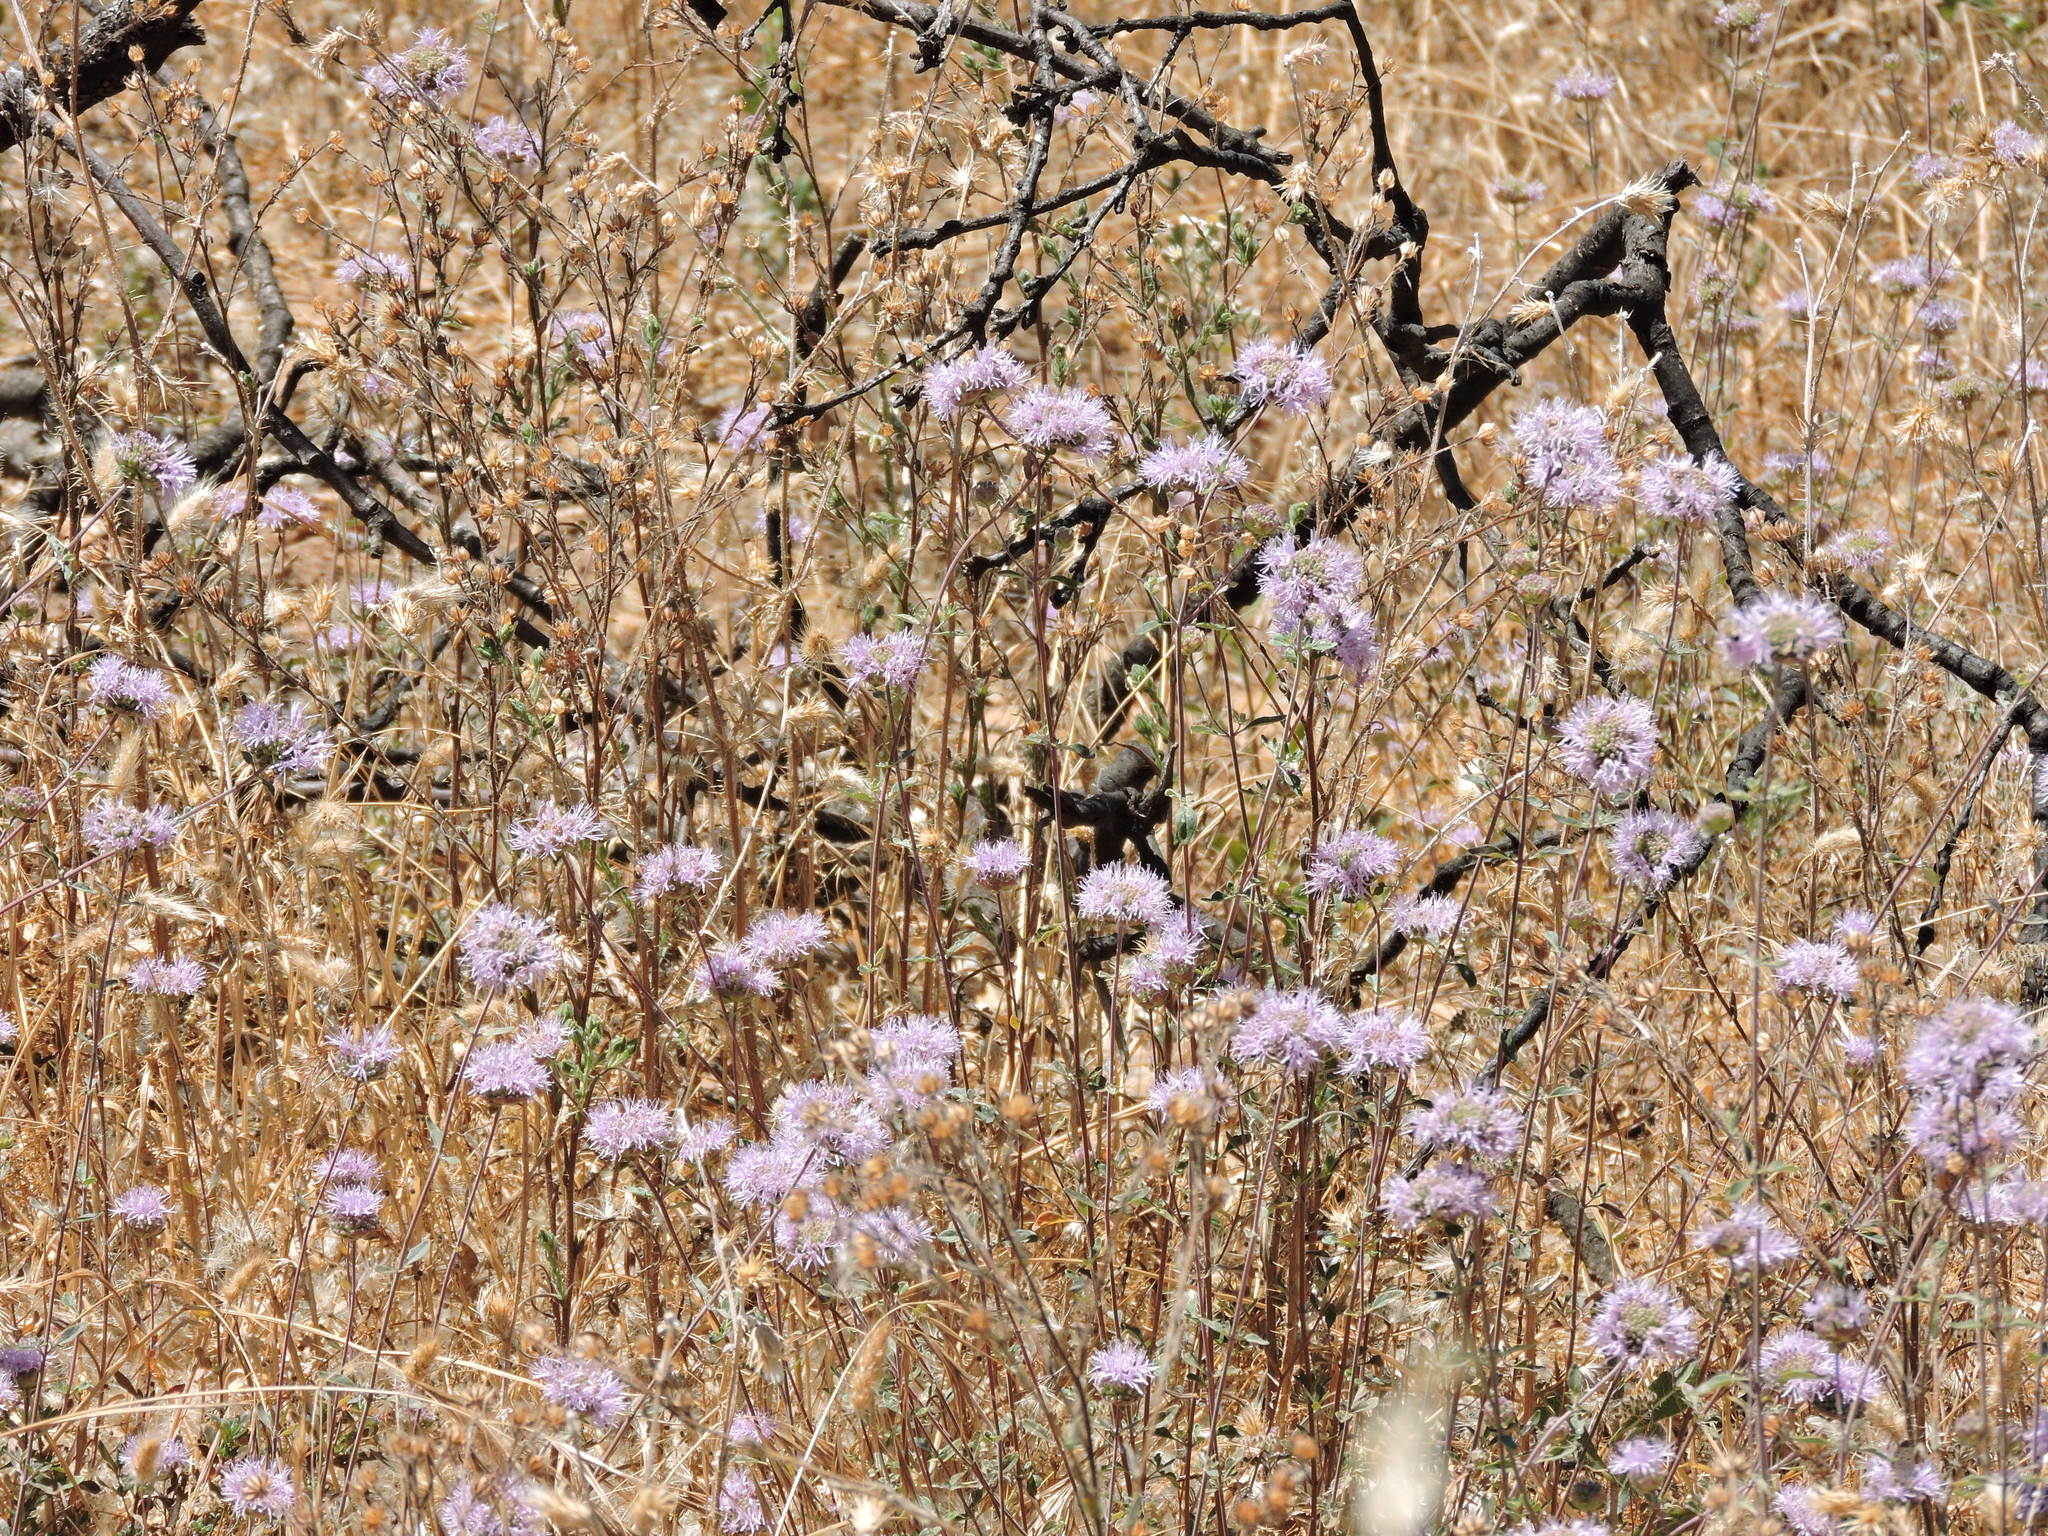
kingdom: Plantae
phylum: Tracheophyta
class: Magnoliopsida
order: Lamiales
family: Lamiaceae
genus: Monardella
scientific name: Monardella odoratissima
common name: Pacific monardella
